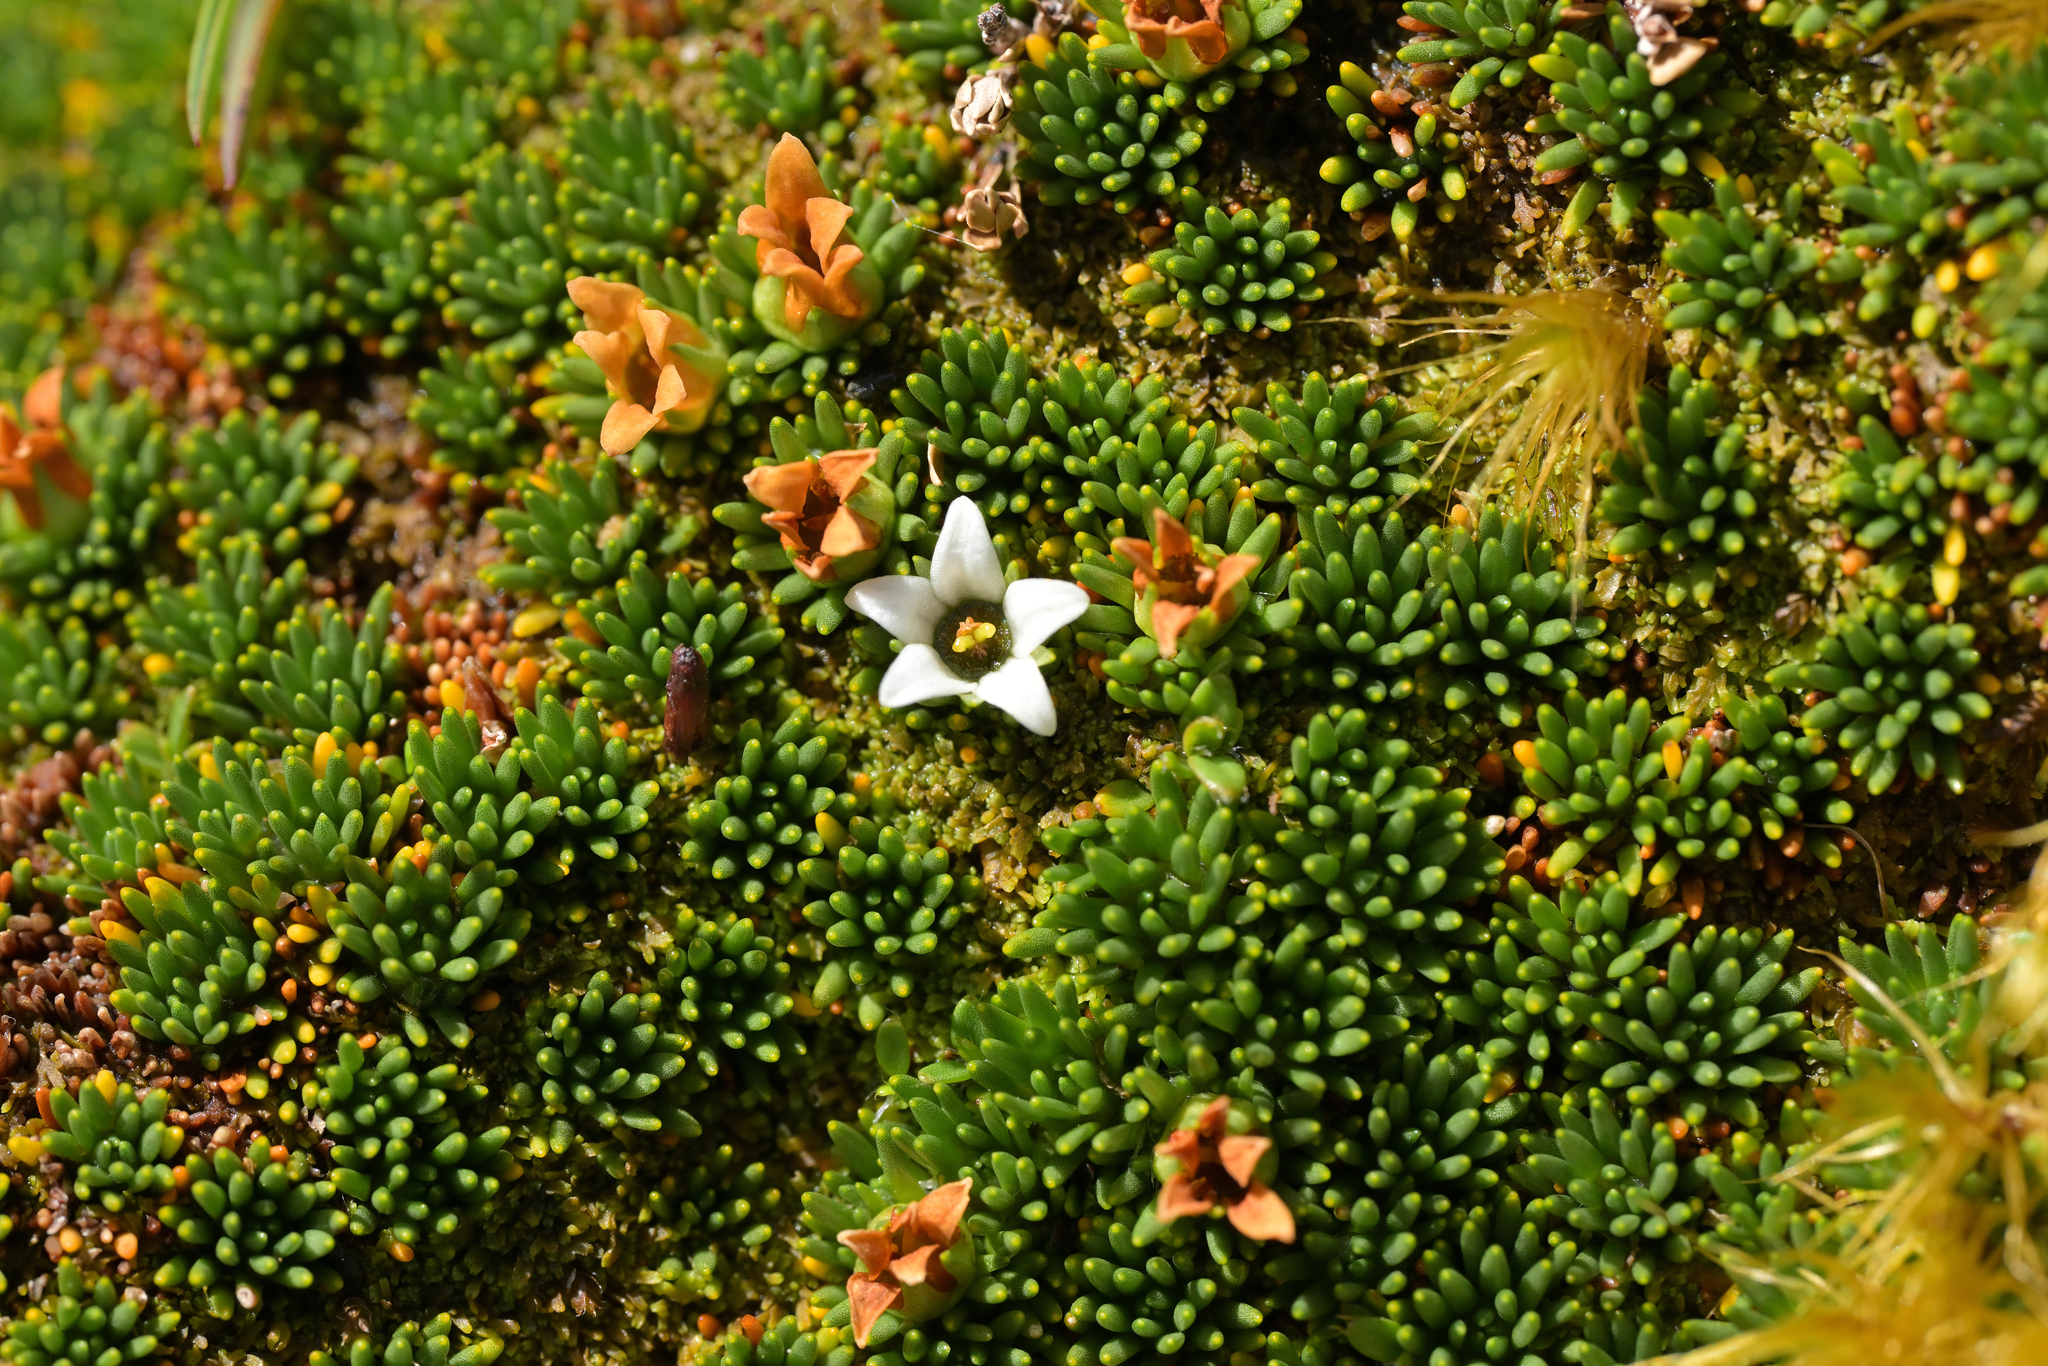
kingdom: Plantae
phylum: Tracheophyta
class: Magnoliopsida
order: Asterales
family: Stylidiaceae
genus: Donatia
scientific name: Donatia novae-zelandiae
